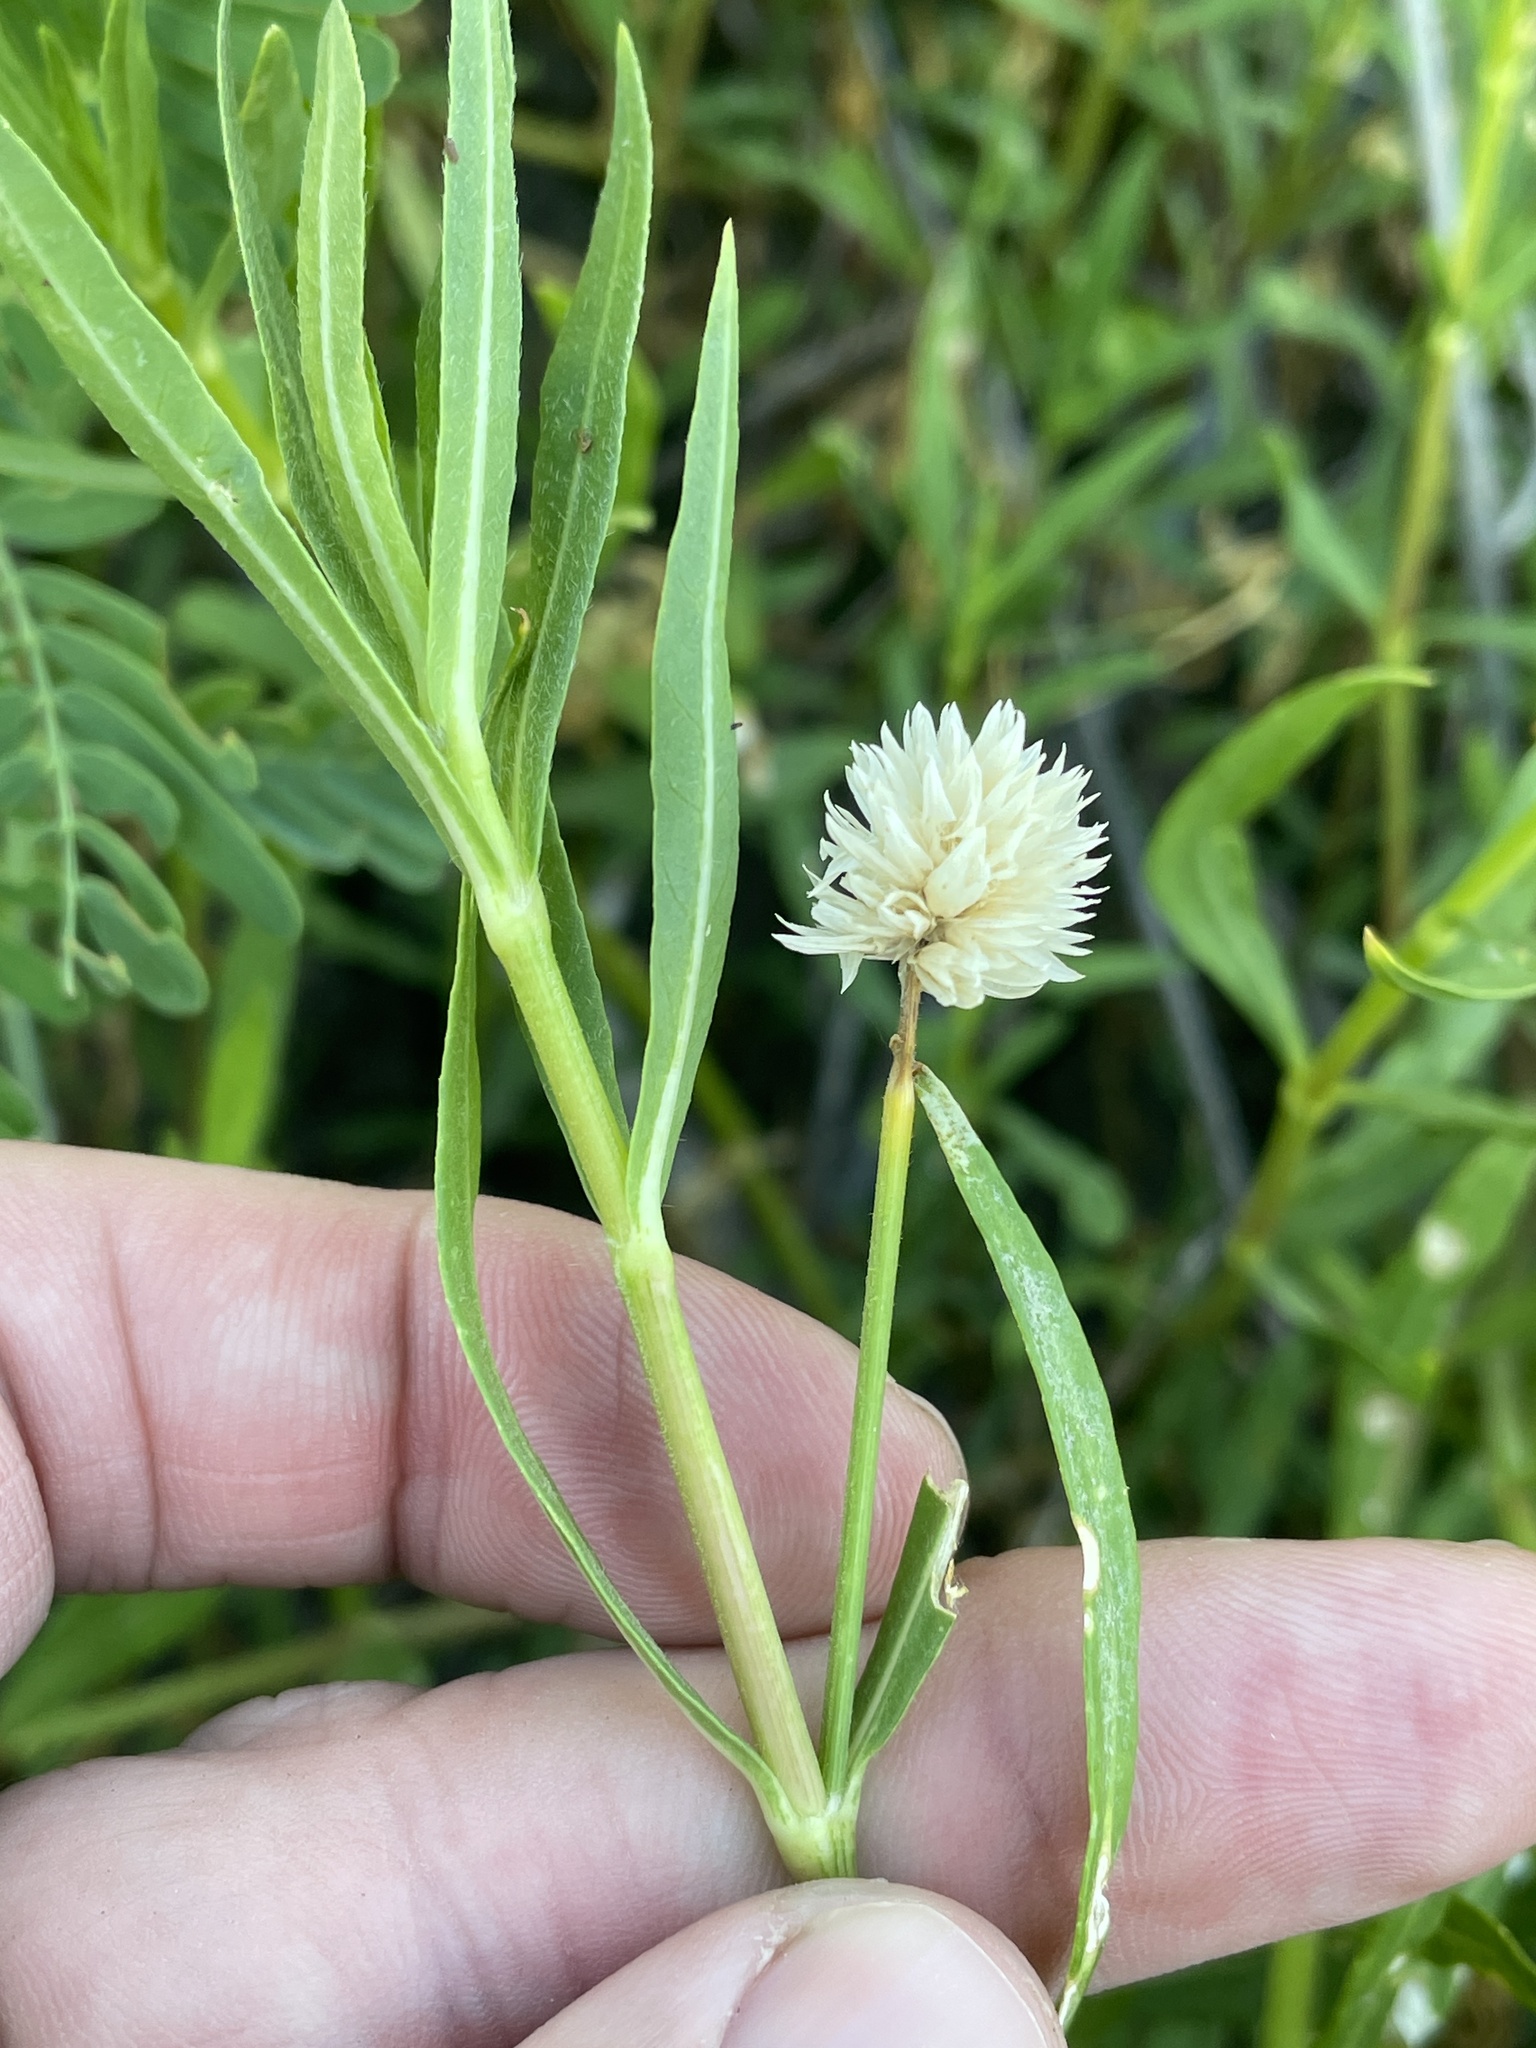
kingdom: Plantae
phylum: Tracheophyta
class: Magnoliopsida
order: Caryophyllales
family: Amaranthaceae
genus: Alternanthera
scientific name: Alternanthera philoxeroides
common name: Alligatorweed
